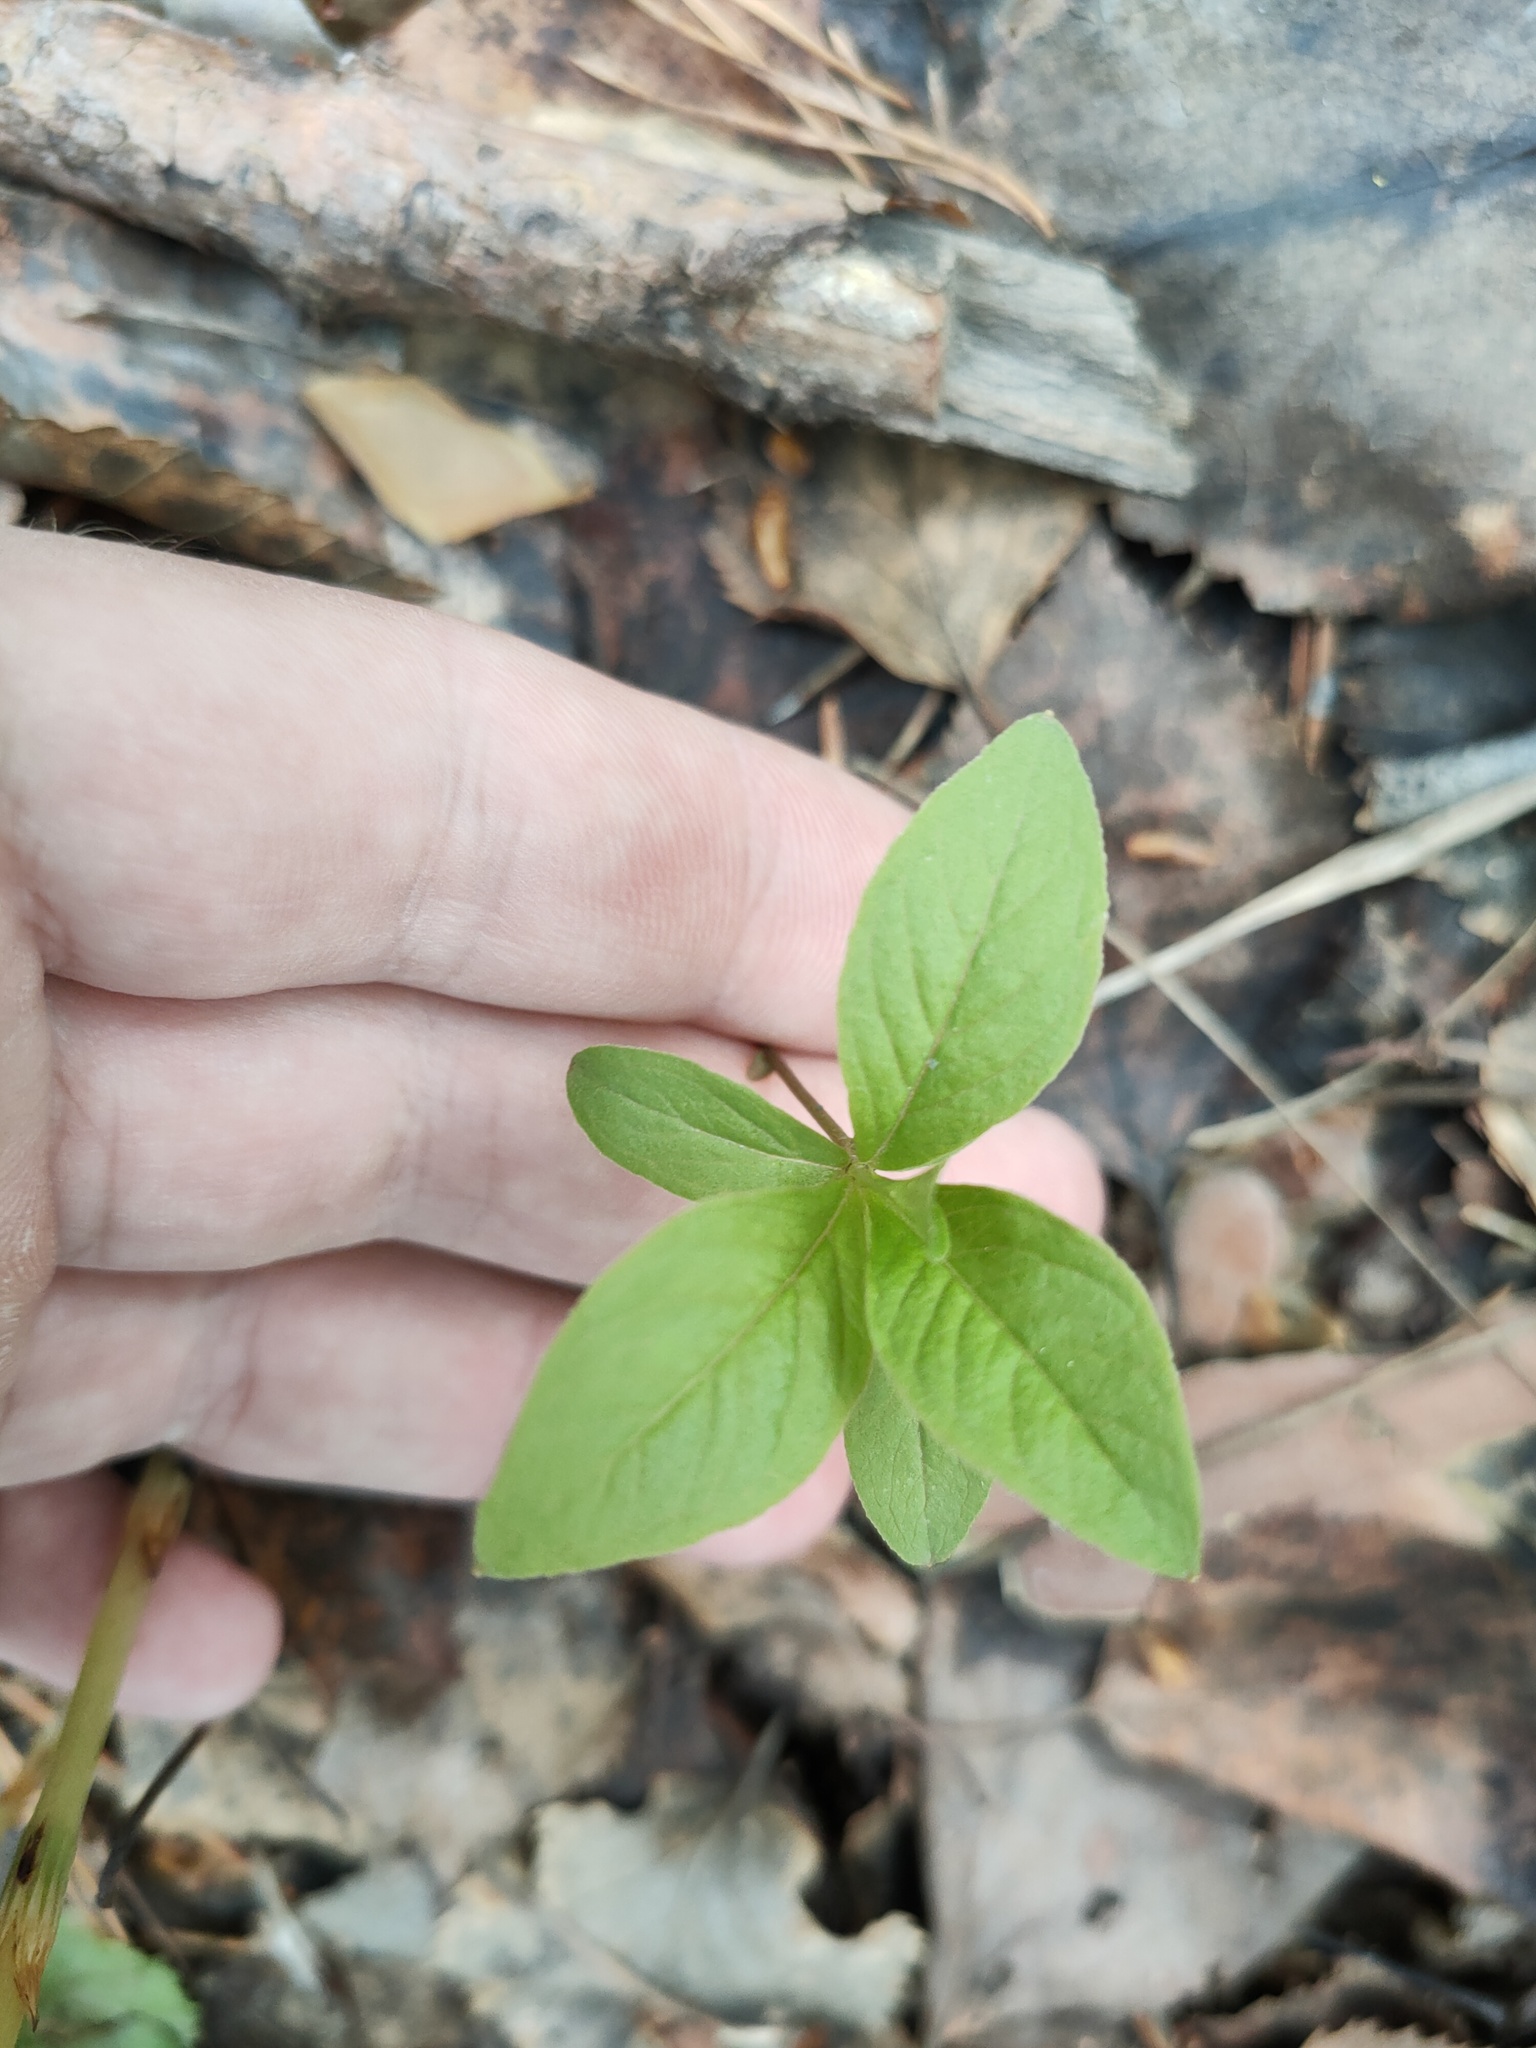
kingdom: Plantae
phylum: Tracheophyta
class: Magnoliopsida
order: Ericales
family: Primulaceae
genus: Lysimachia
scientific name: Lysimachia europaea
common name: Arctic starflower
